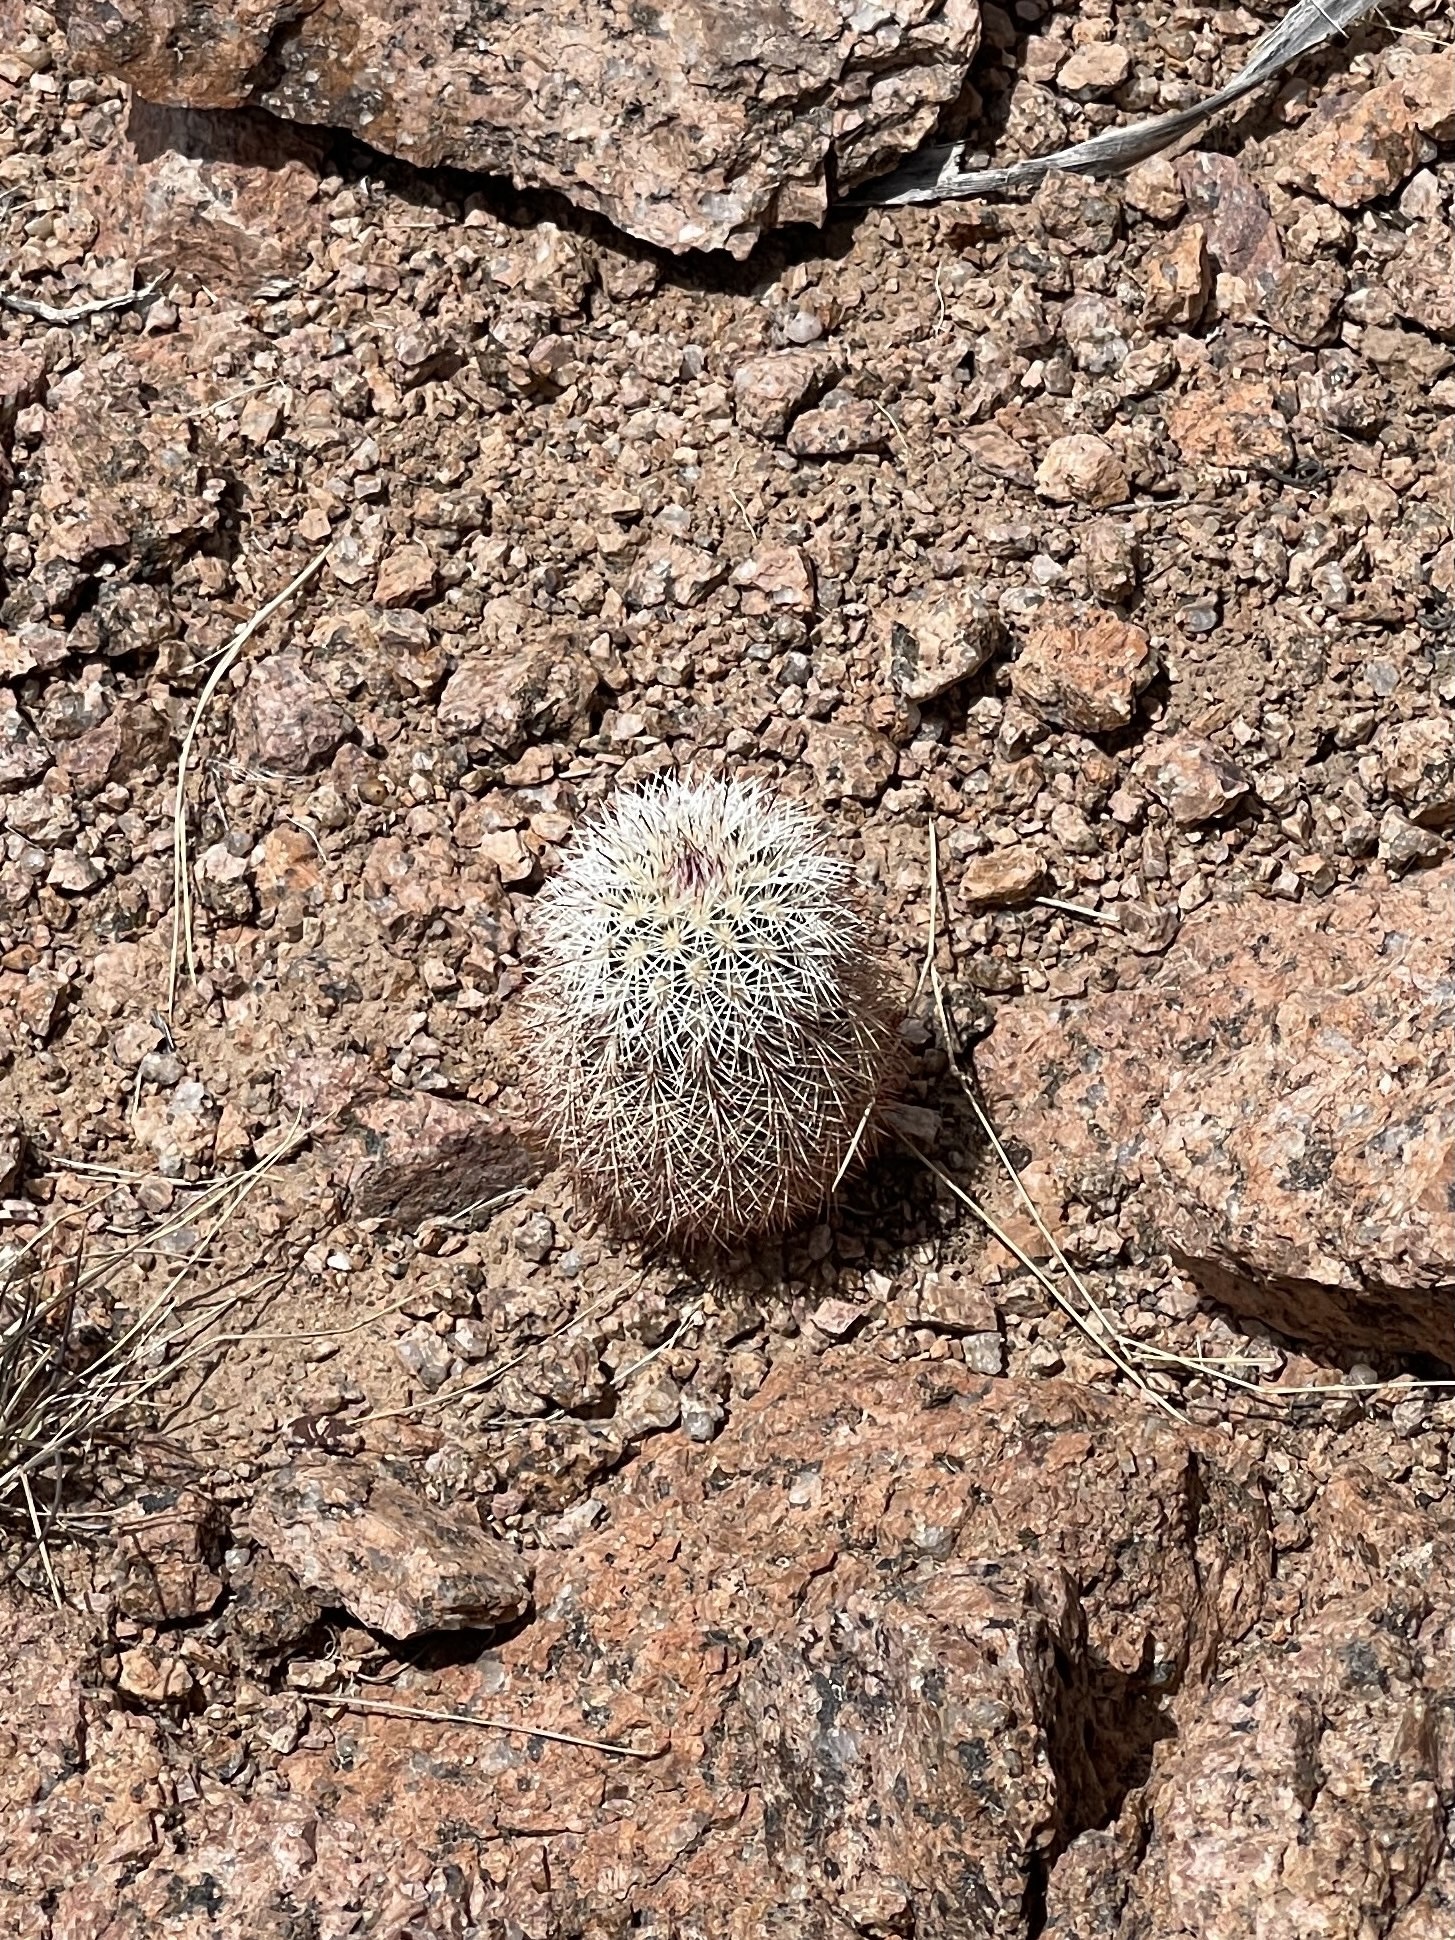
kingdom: Plantae
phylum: Tracheophyta
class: Magnoliopsida
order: Caryophyllales
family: Cactaceae
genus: Echinocereus
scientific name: Echinocereus dasyacanthus
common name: Spiny hedgehog cactus
